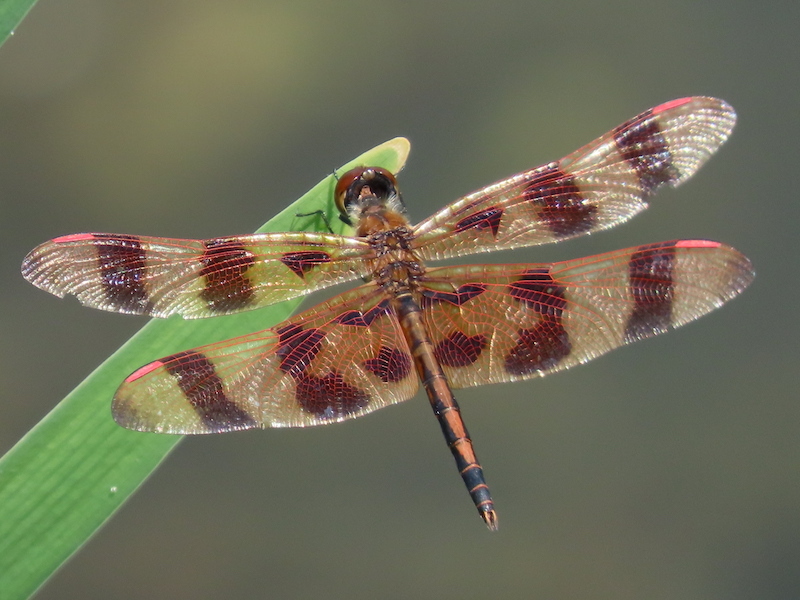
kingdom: Animalia
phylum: Arthropoda
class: Insecta
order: Odonata
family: Libellulidae
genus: Celithemis
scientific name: Celithemis eponina
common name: Halloween pennant
